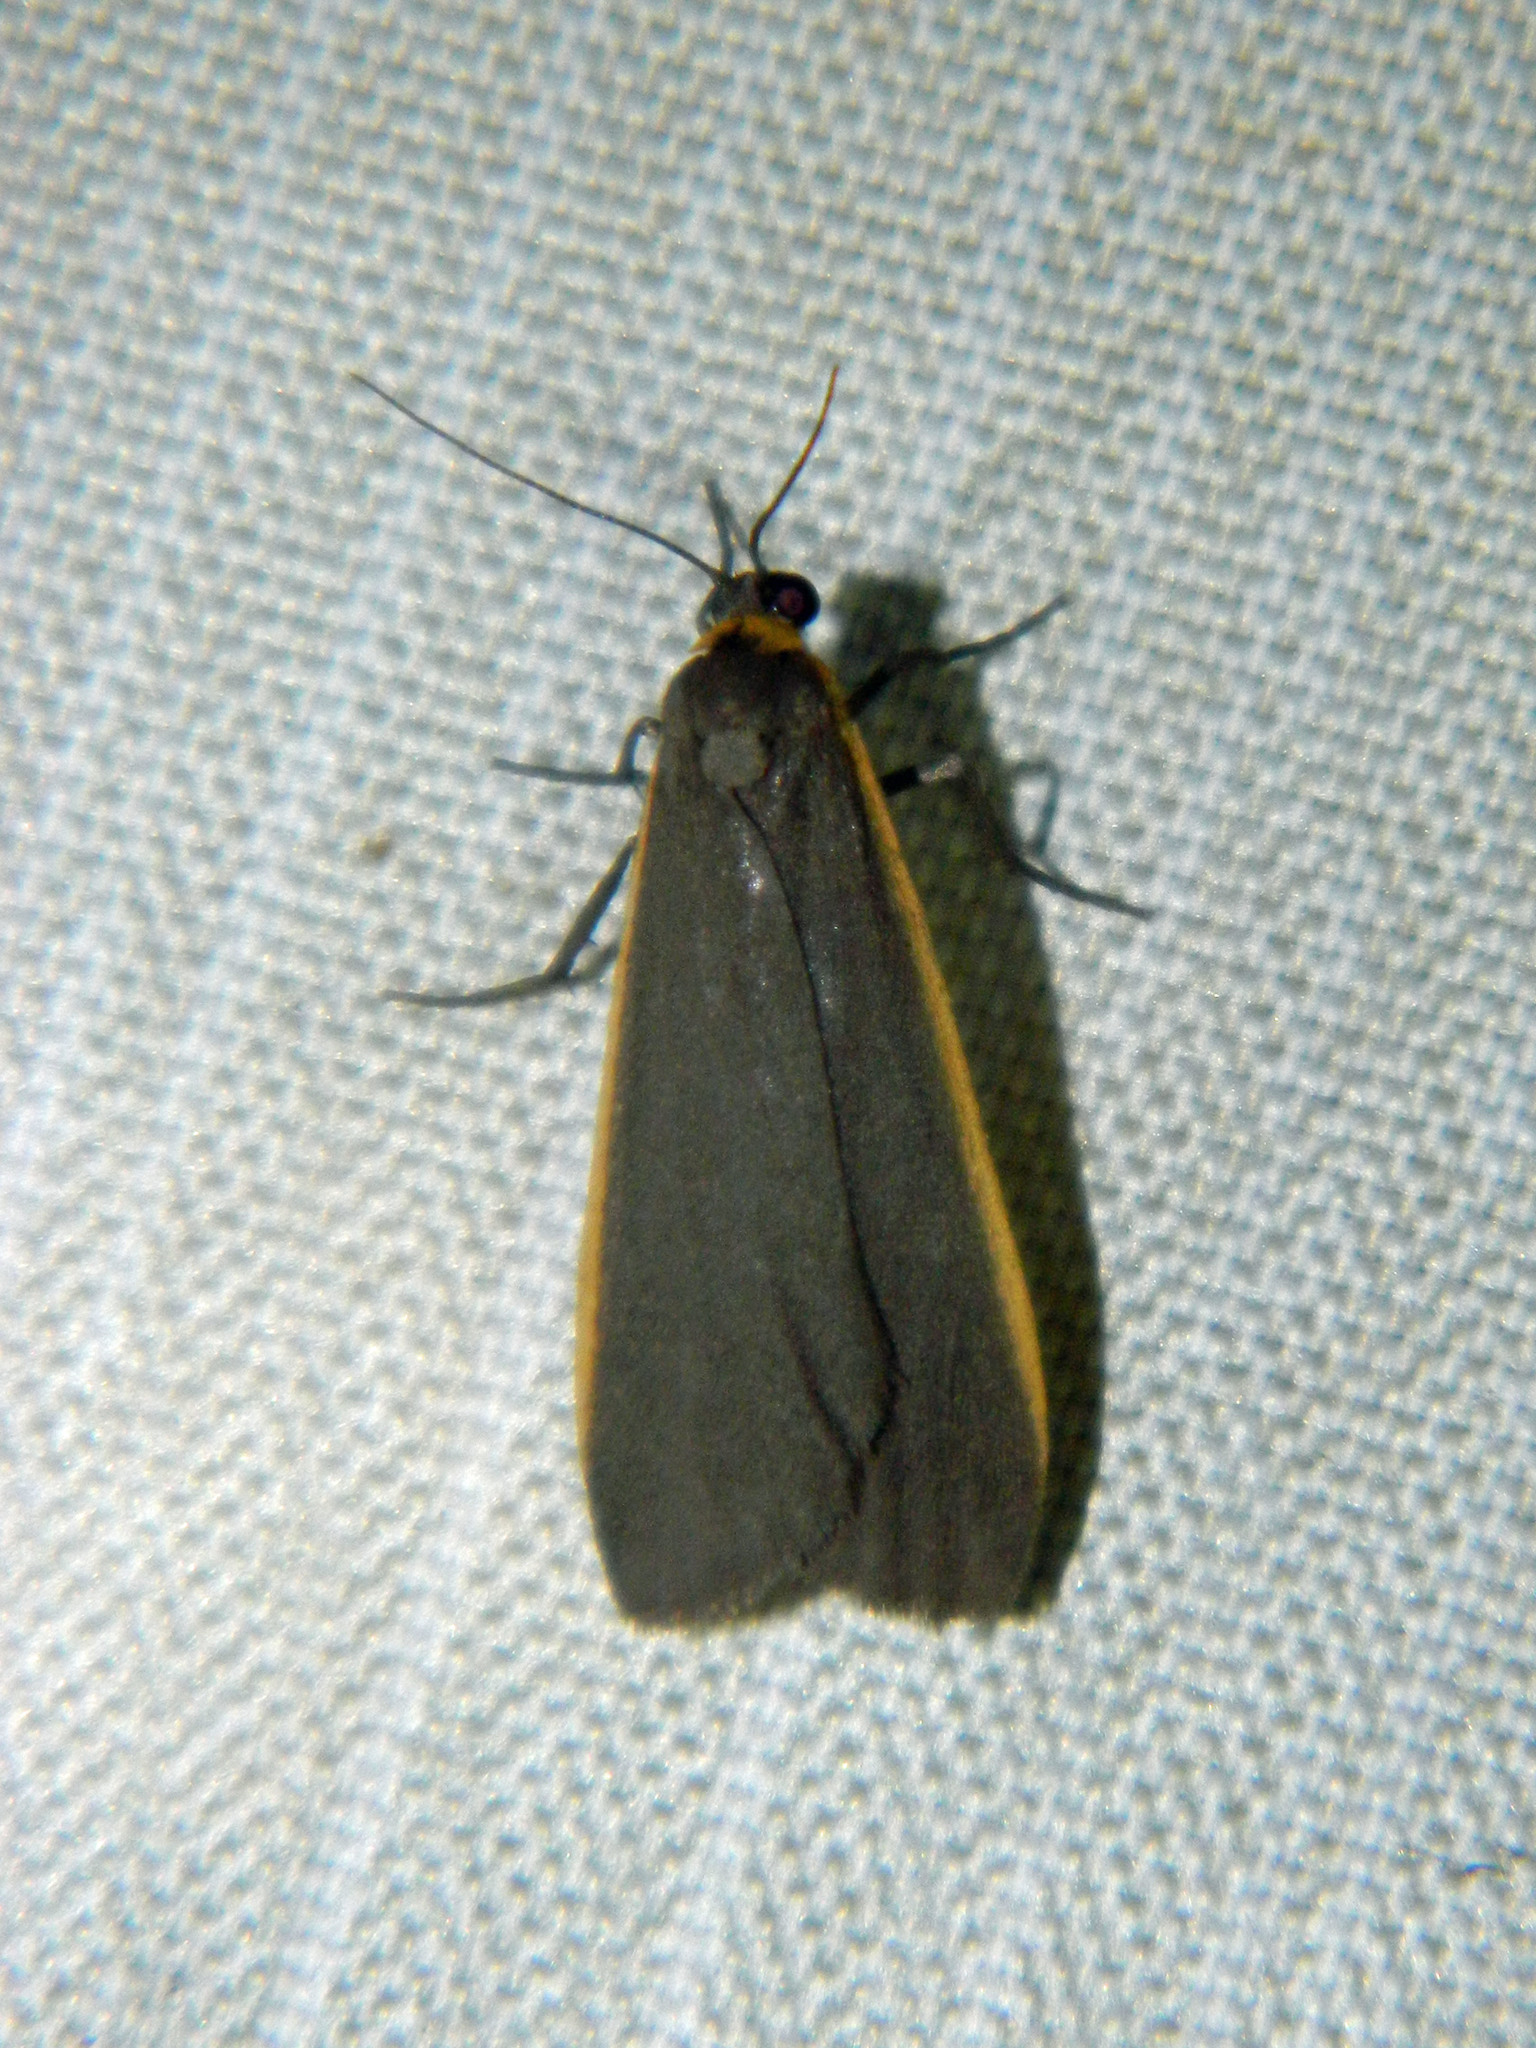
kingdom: Animalia
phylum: Arthropoda
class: Insecta
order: Lepidoptera
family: Erebidae
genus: Manulea
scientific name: Manulea bicolor
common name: Bicolored moth
